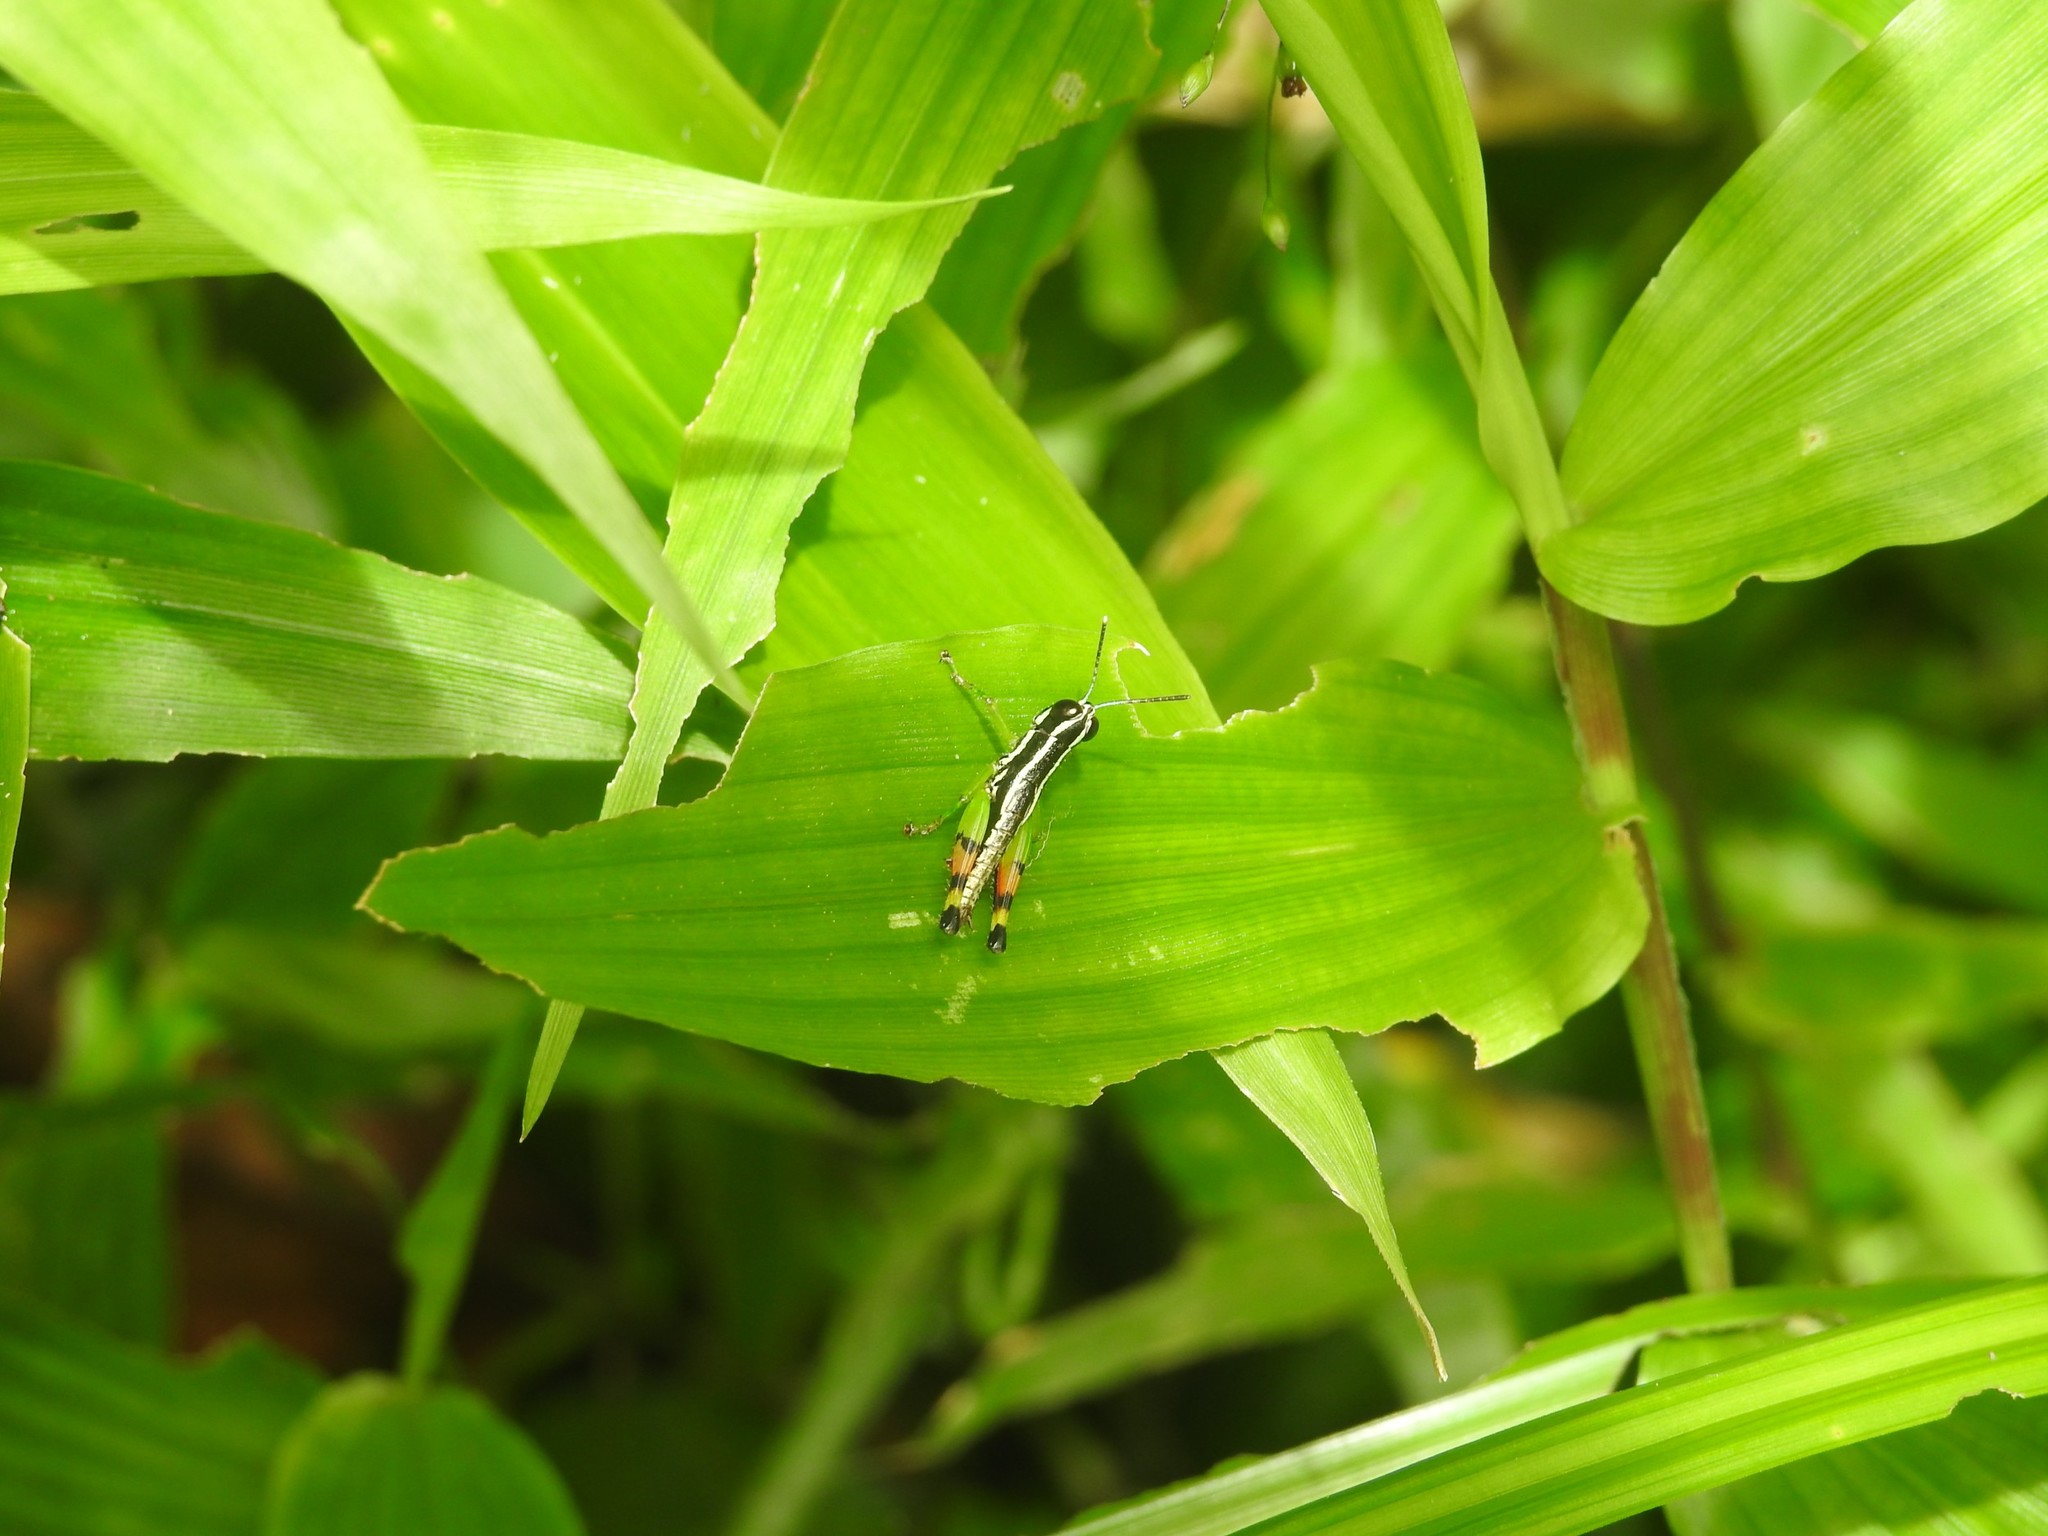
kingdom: Animalia
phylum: Arthropoda
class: Insecta
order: Orthoptera
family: Acrididae
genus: Chitaura
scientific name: Chitaura indica
